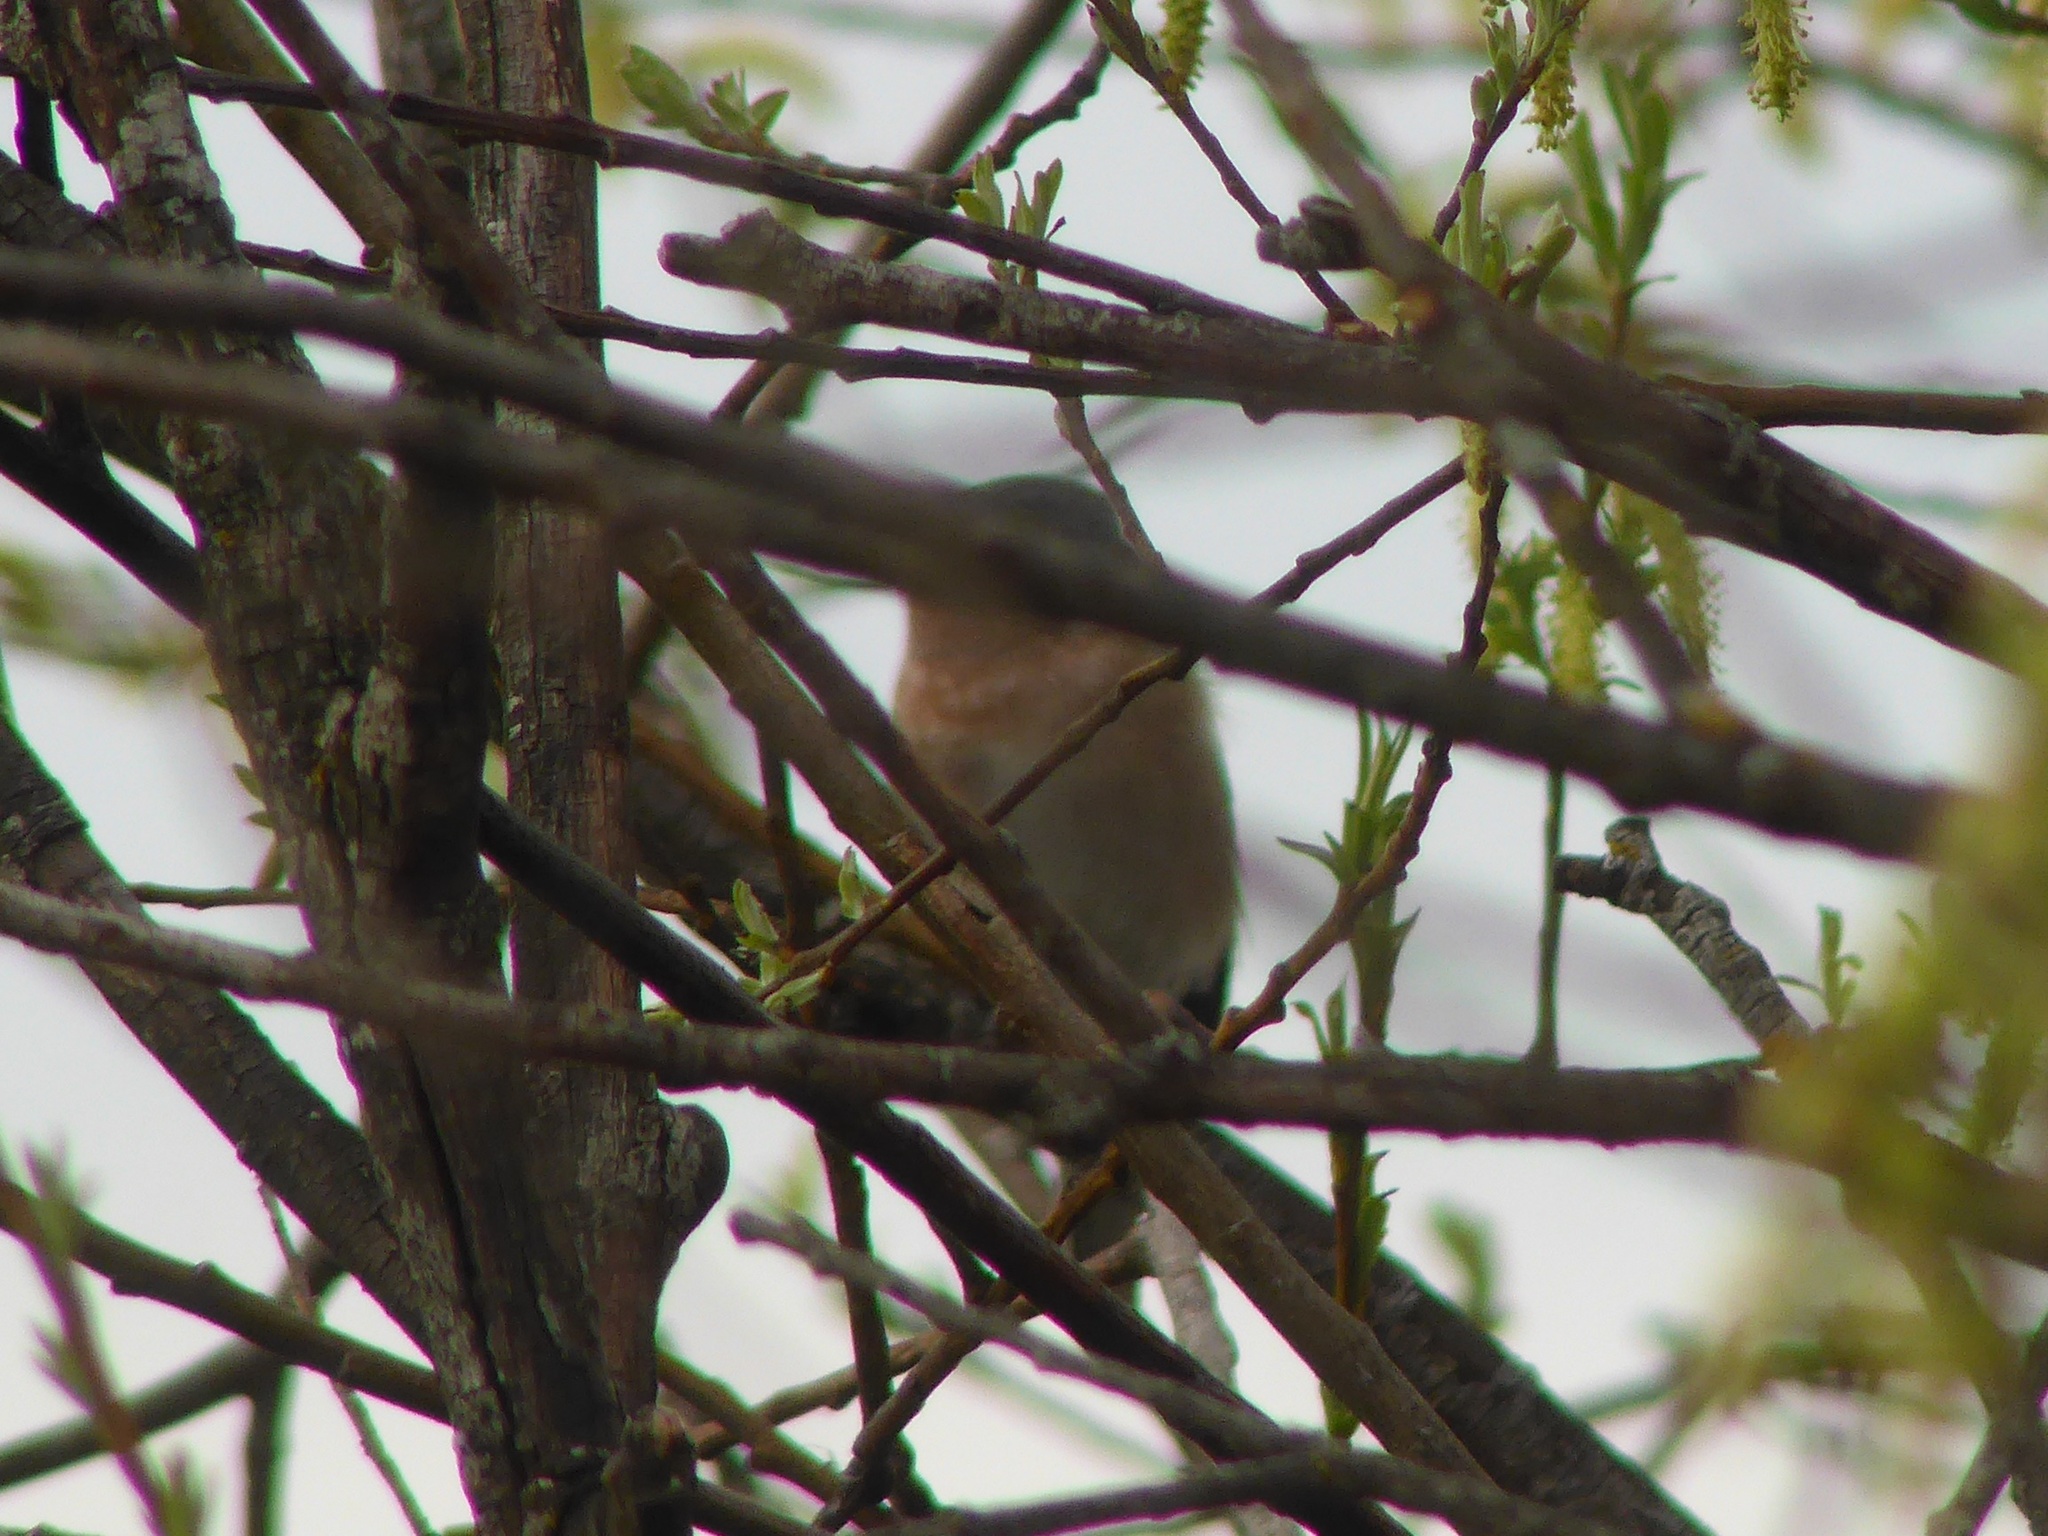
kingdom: Animalia
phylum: Chordata
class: Aves
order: Passeriformes
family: Sylviidae
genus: Curruca
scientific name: Curruca iberiae
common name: Western subalpine warbler
